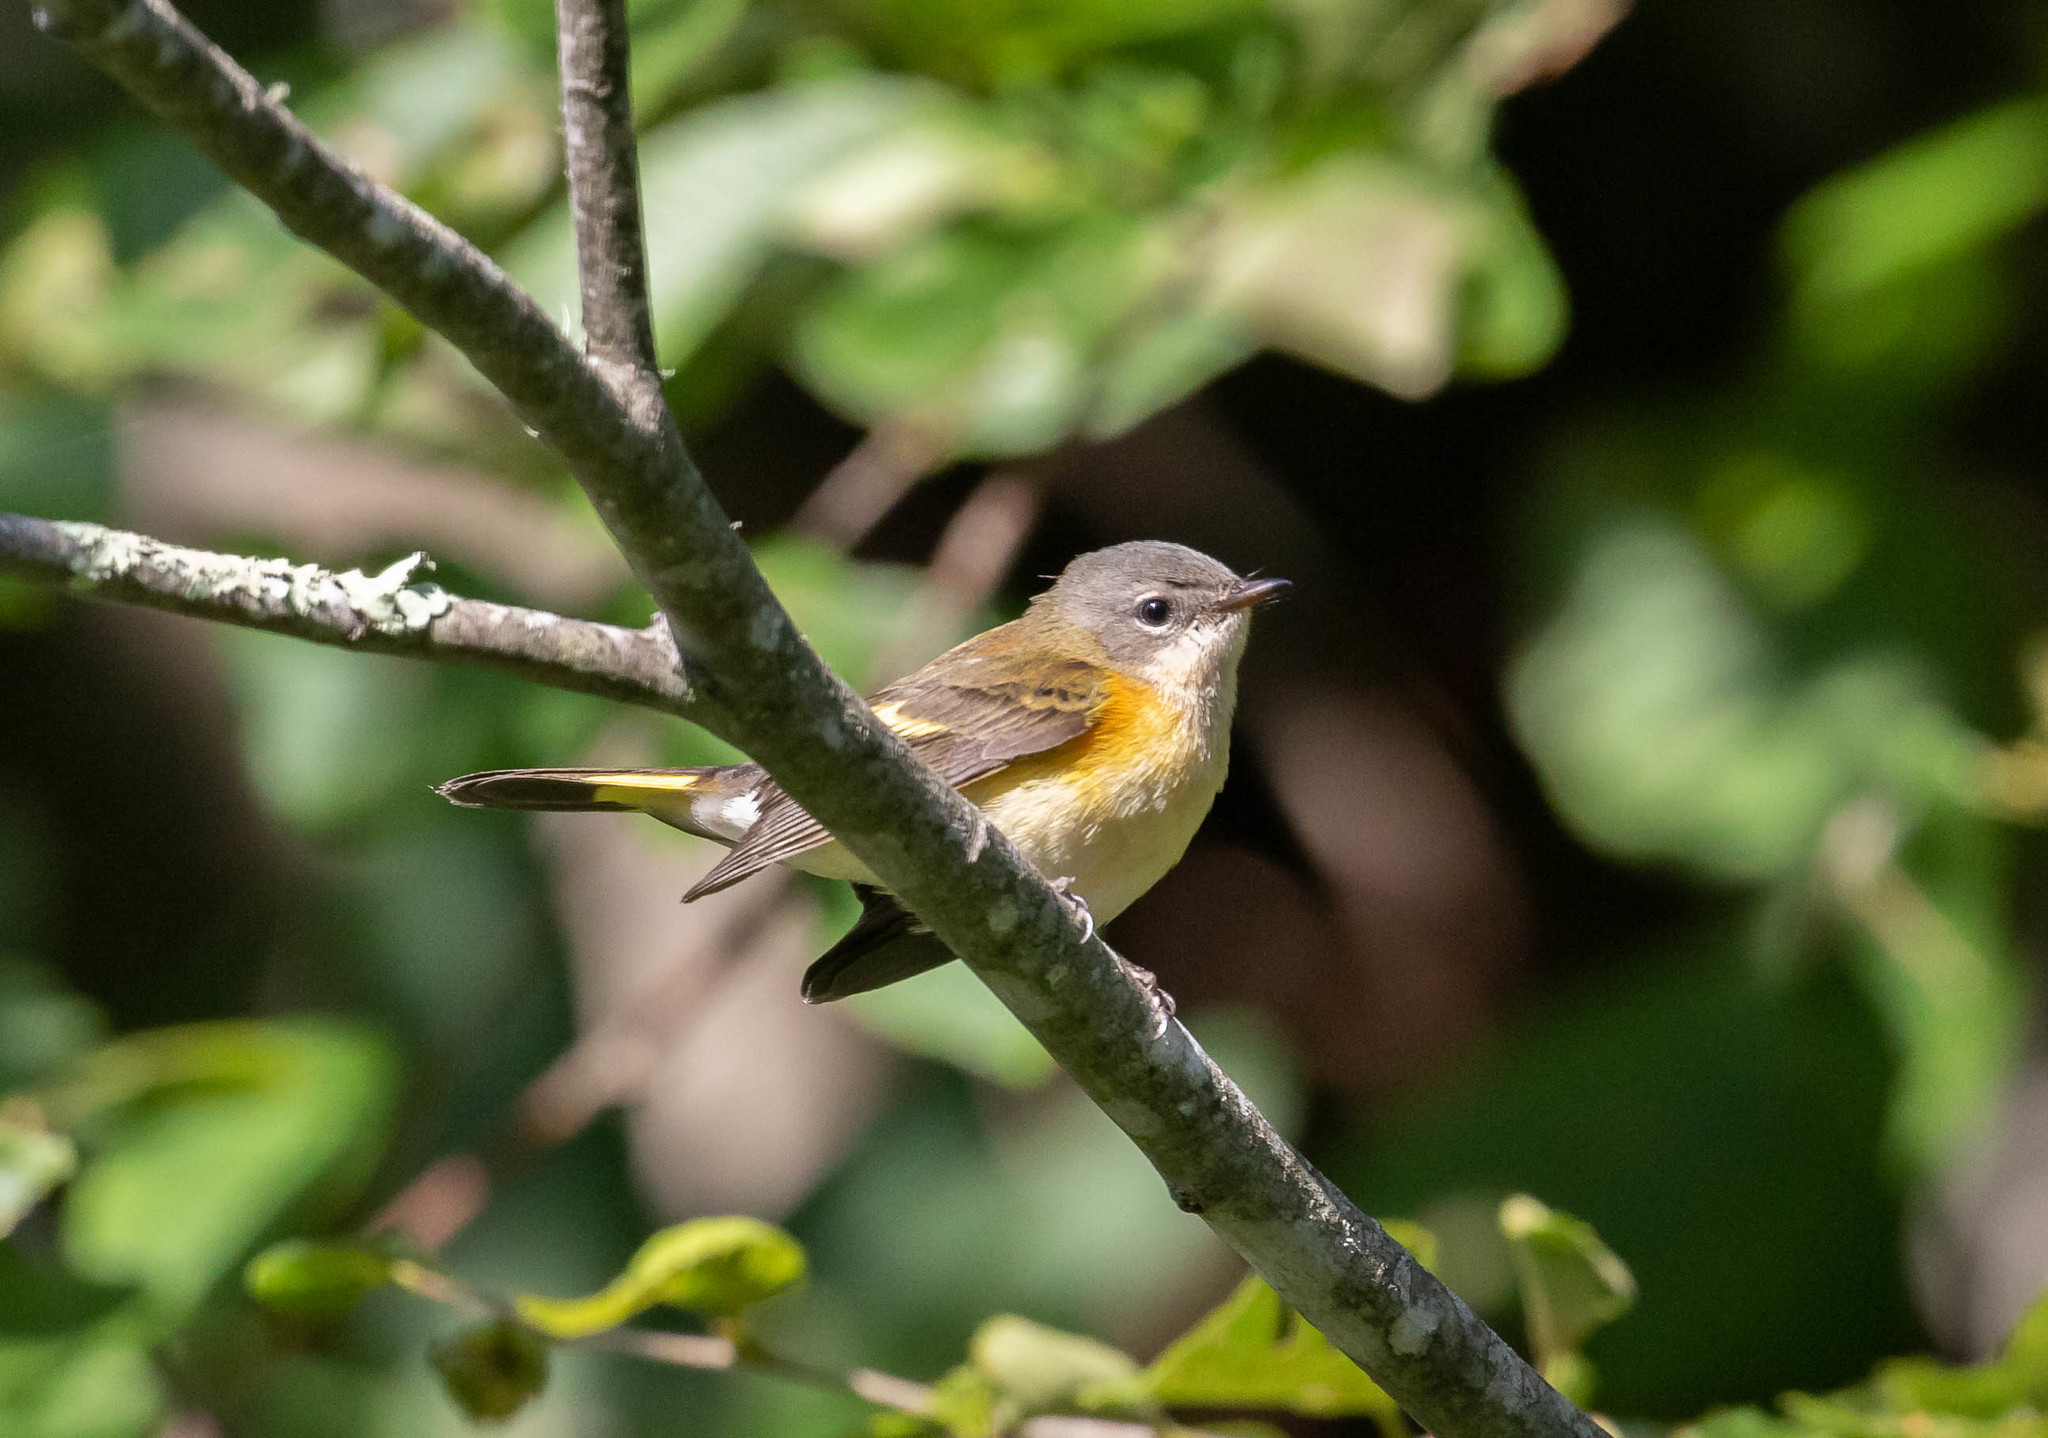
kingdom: Animalia
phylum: Chordata
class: Aves
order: Passeriformes
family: Parulidae
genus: Setophaga
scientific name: Setophaga ruticilla
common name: American redstart
